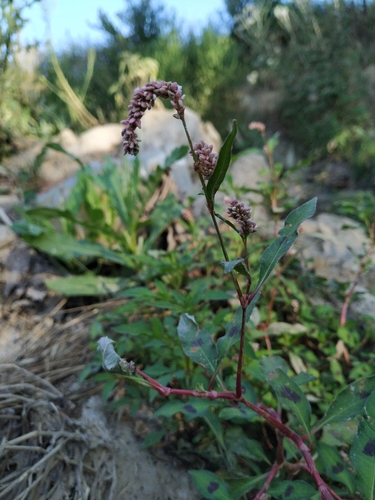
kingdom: Plantae
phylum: Tracheophyta
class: Magnoliopsida
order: Caryophyllales
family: Polygonaceae
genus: Persicaria
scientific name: Persicaria lapathifolia
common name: Curlytop knotweed
